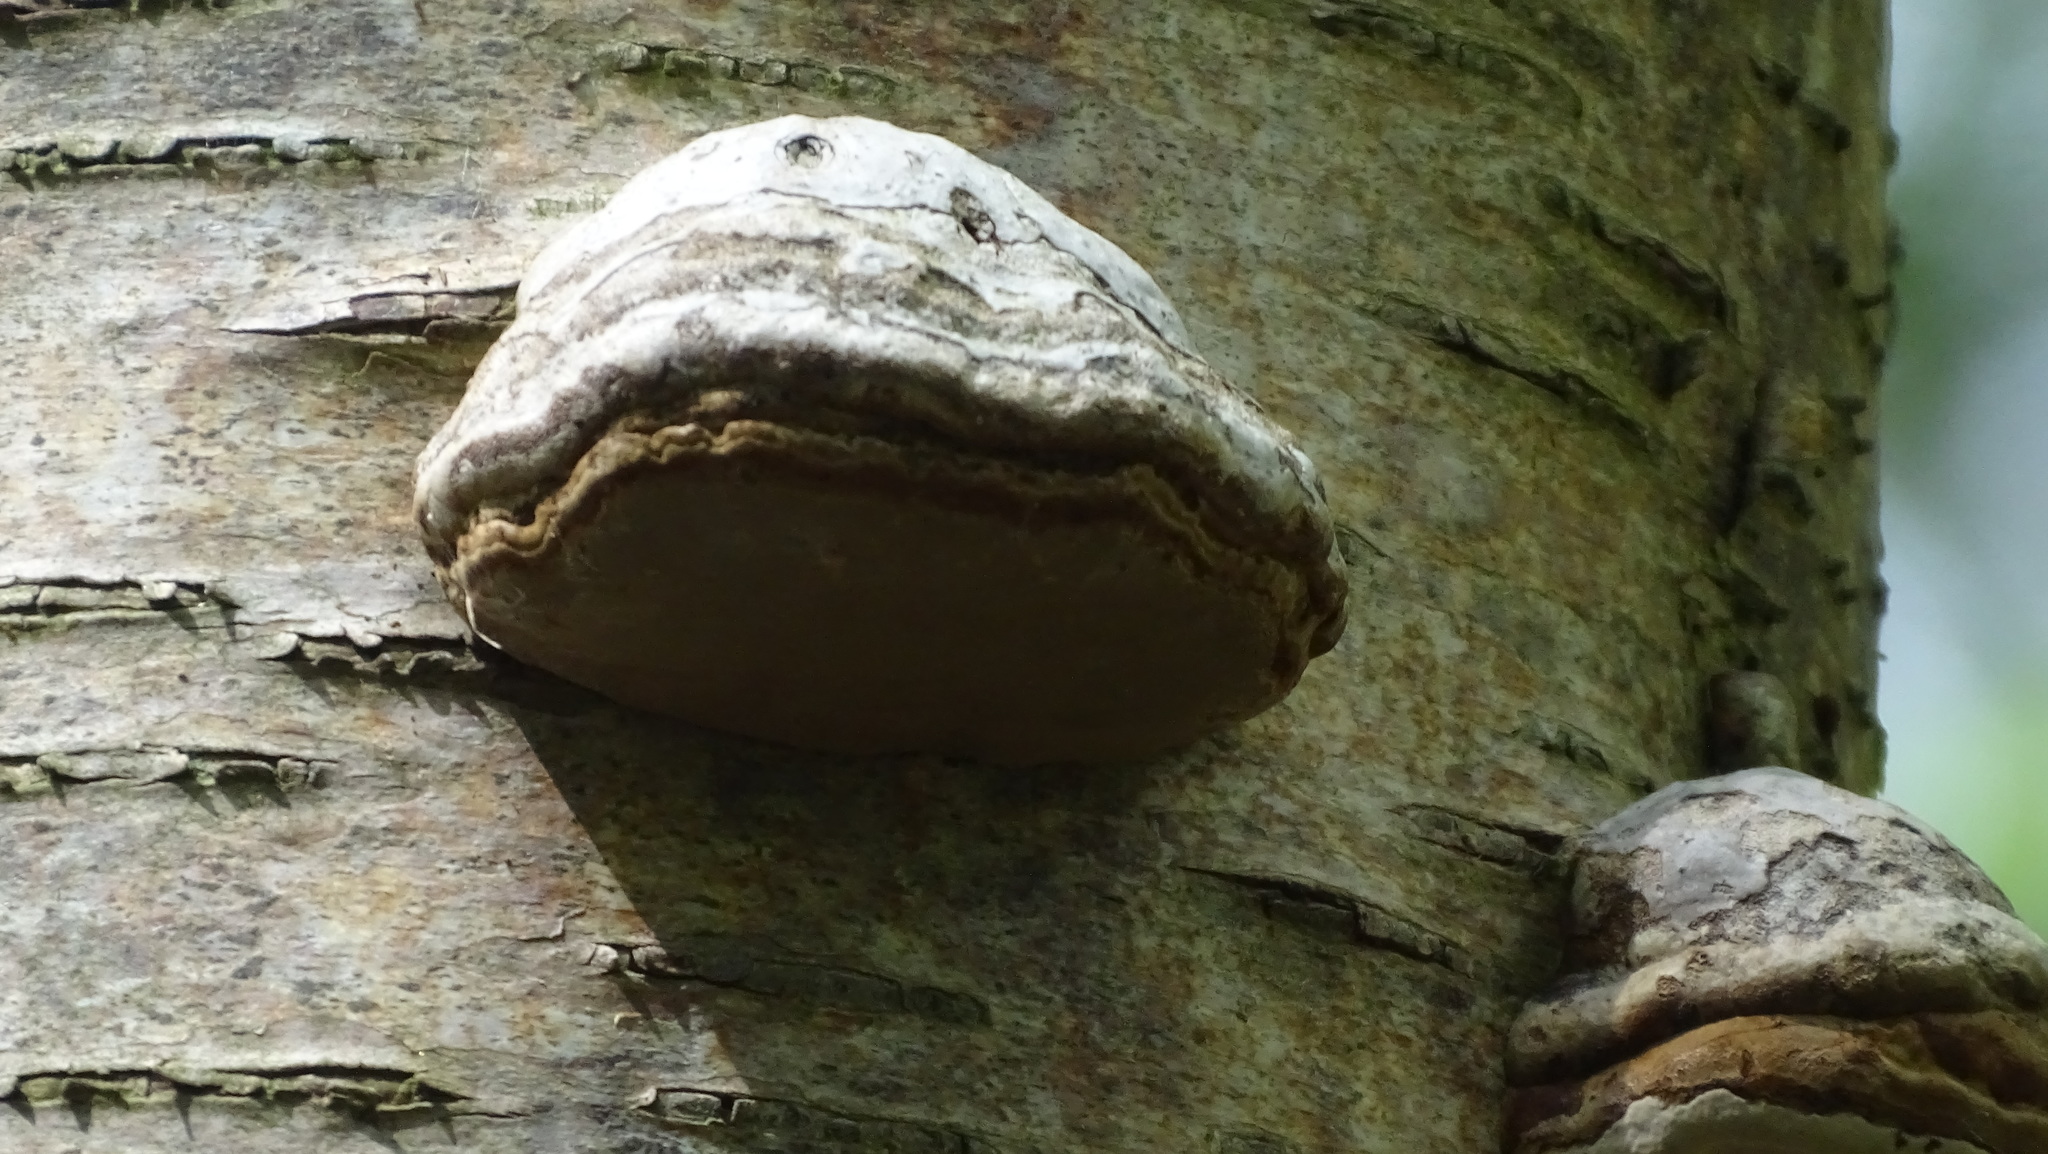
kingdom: Fungi
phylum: Basidiomycota
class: Agaricomycetes
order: Polyporales
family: Fomitopsidaceae
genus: Fomitopsis
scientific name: Fomitopsis betulina
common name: Birch polypore
